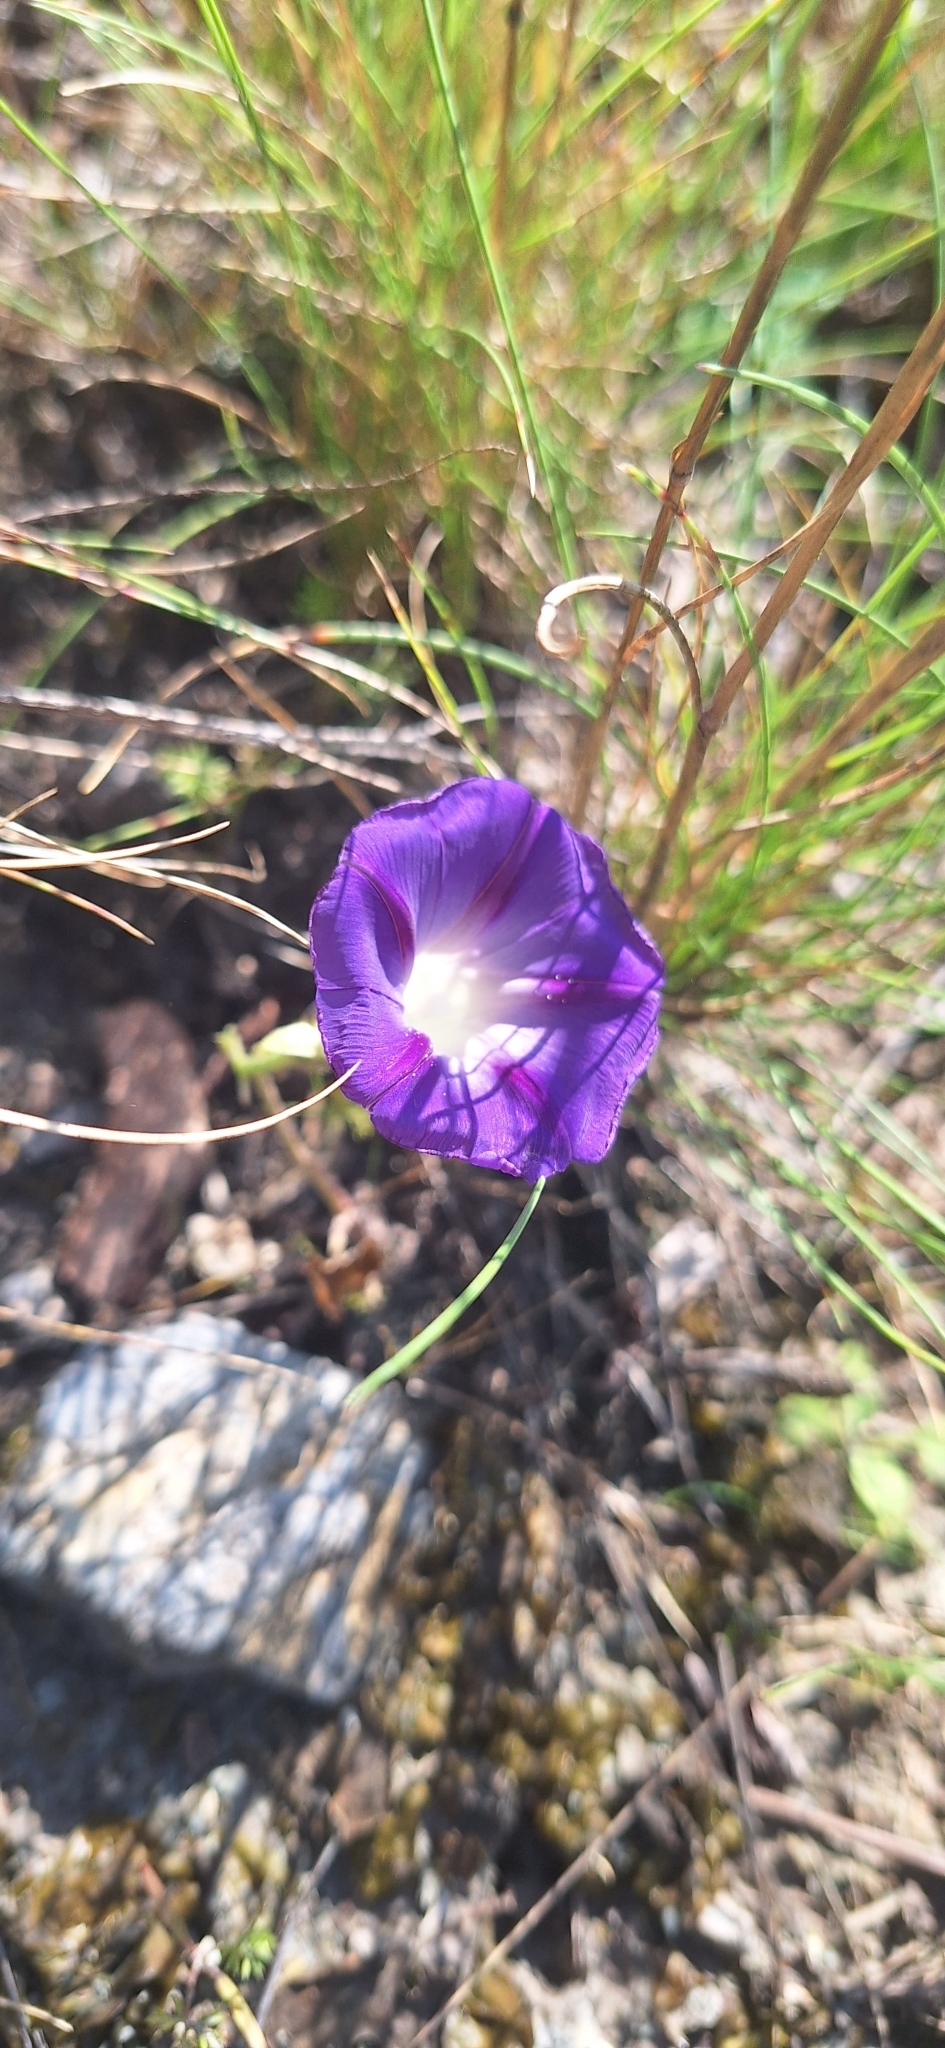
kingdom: Plantae
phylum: Tracheophyta
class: Magnoliopsida
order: Solanales
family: Convolvulaceae
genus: Ipomoea
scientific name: Ipomoea purpurea
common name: Common morning-glory
